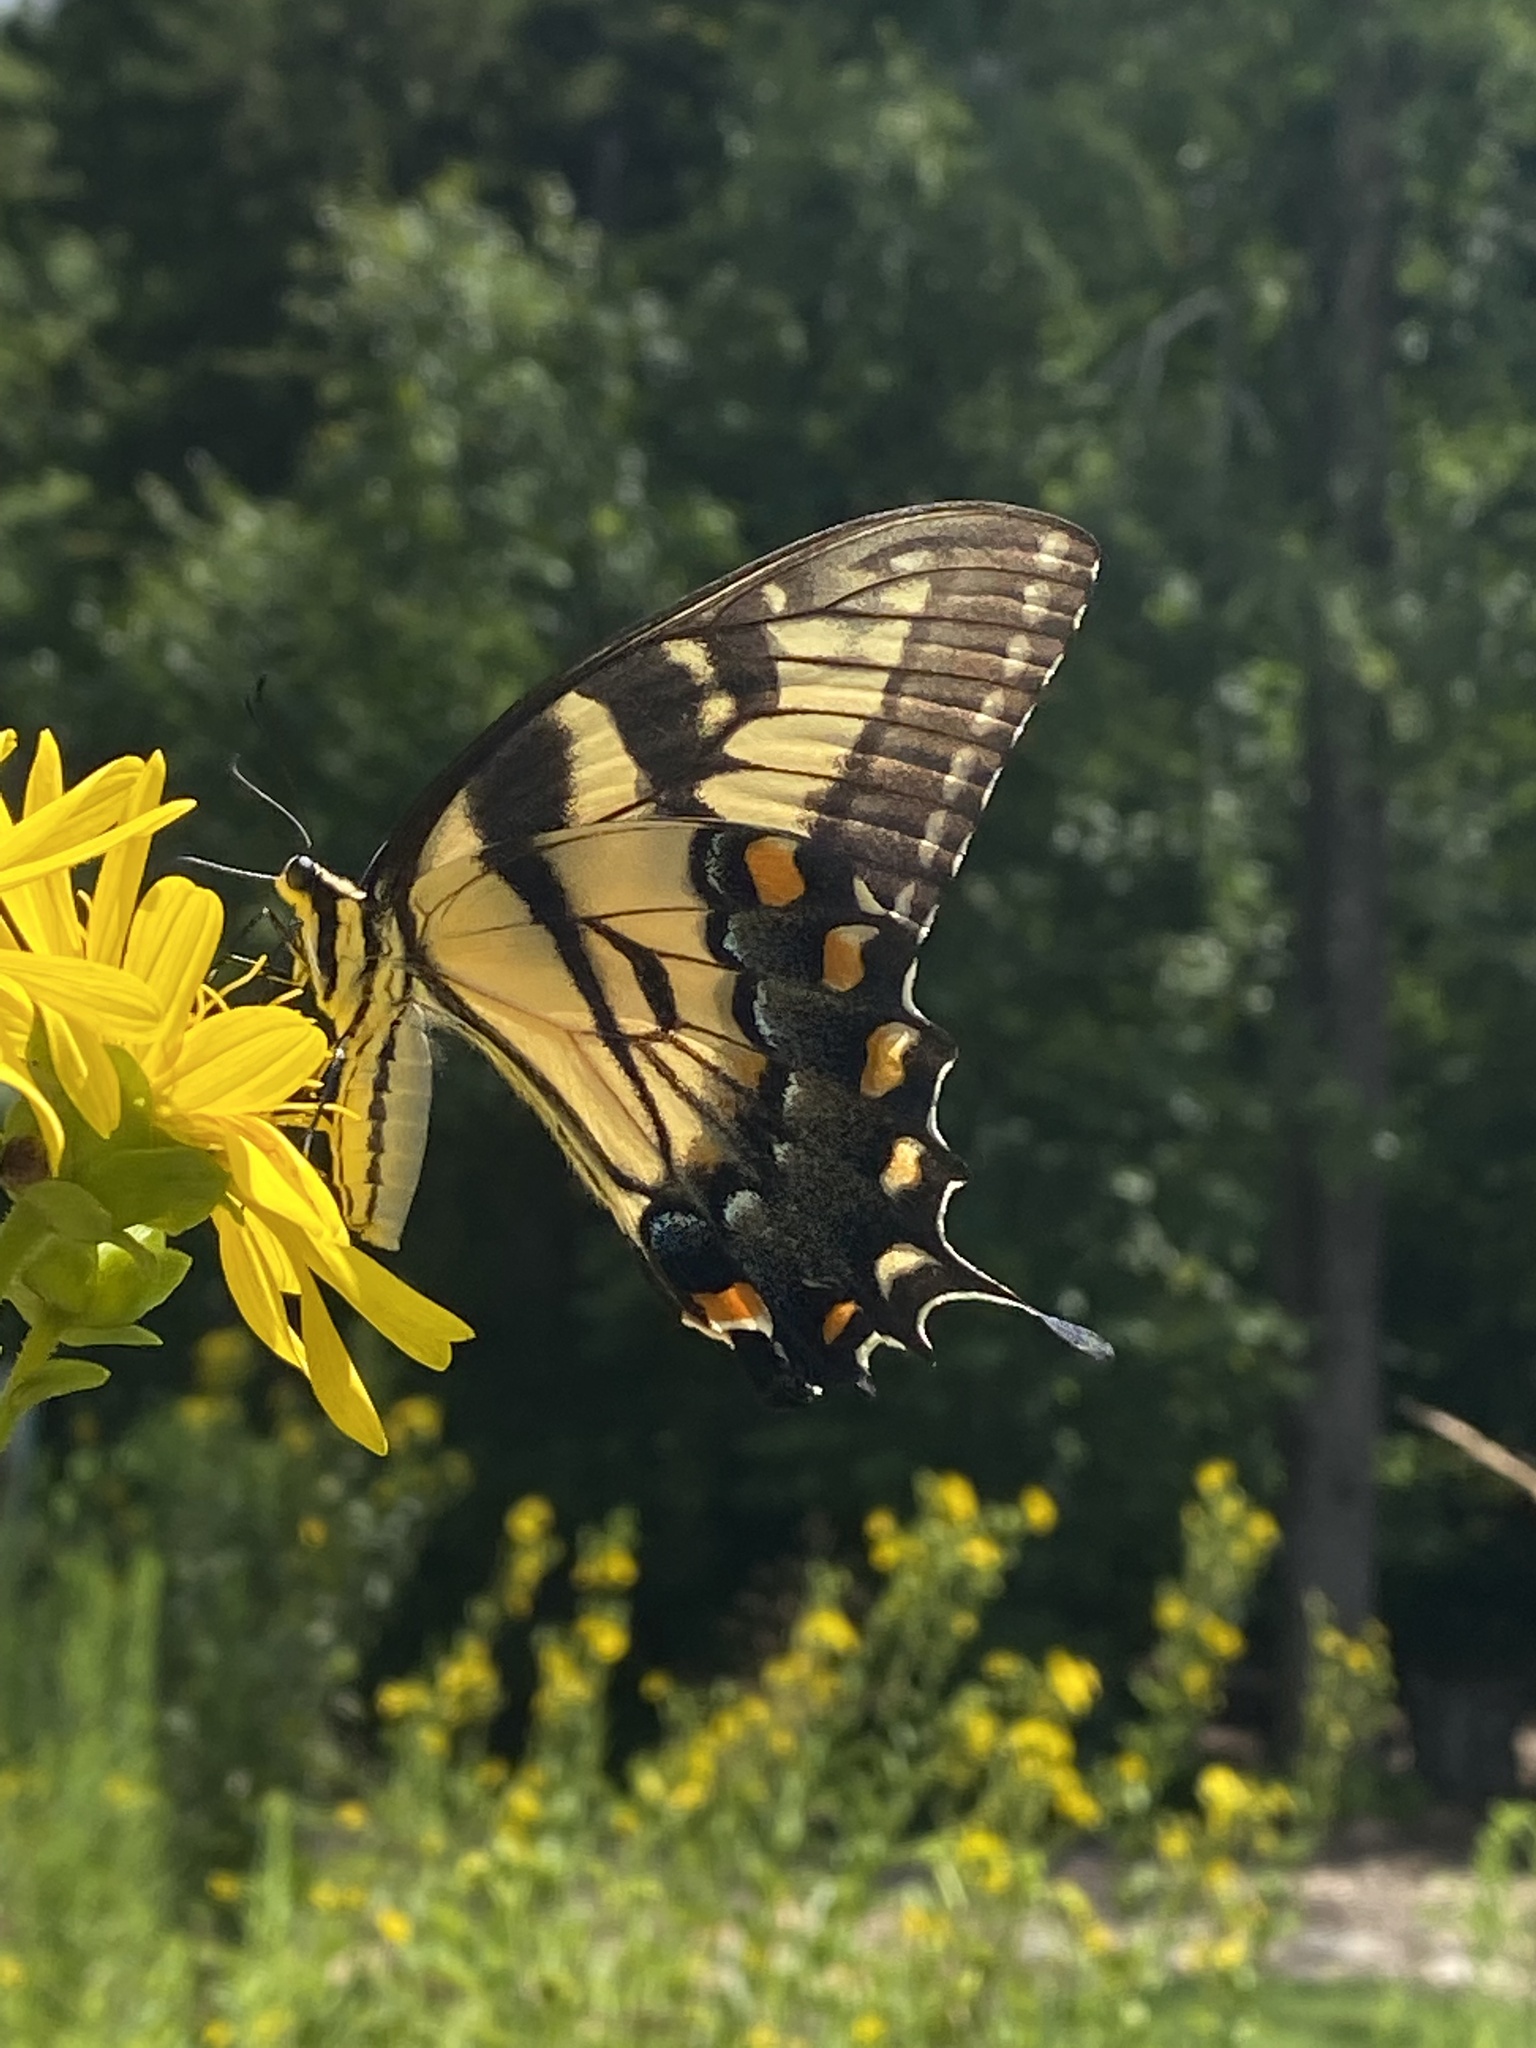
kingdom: Animalia
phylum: Arthropoda
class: Insecta
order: Lepidoptera
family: Papilionidae
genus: Papilio
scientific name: Papilio glaucus
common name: Tiger swallowtail
